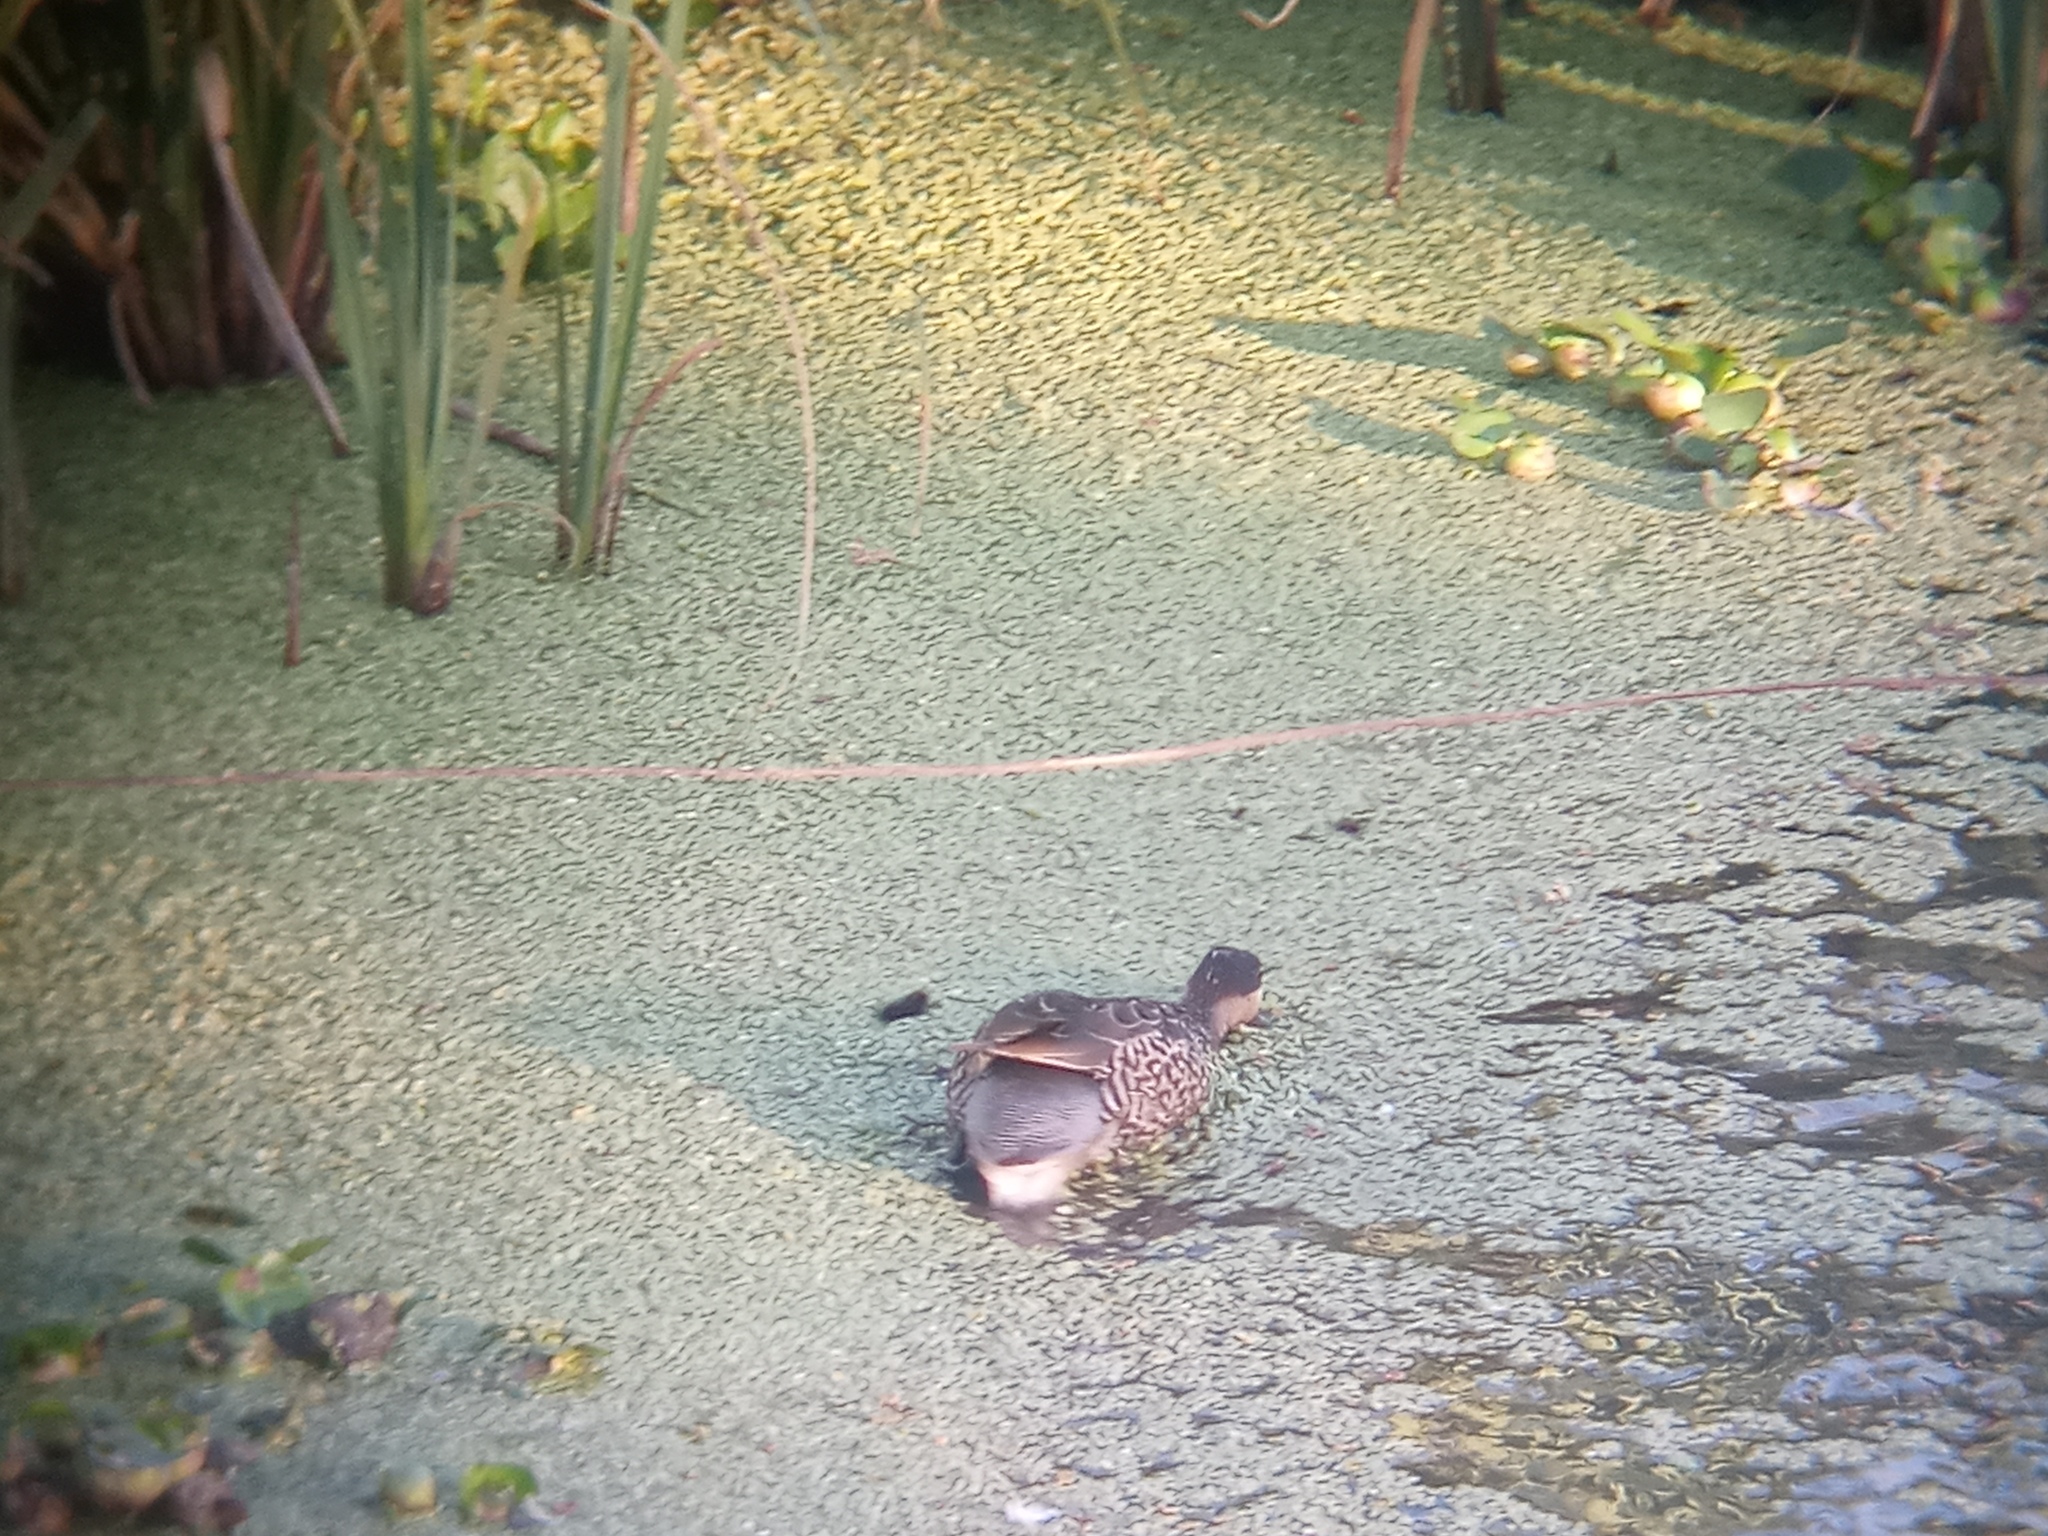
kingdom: Animalia
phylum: Chordata
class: Aves
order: Anseriformes
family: Anatidae
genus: Spatula
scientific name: Spatula versicolor
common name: Silver teal
